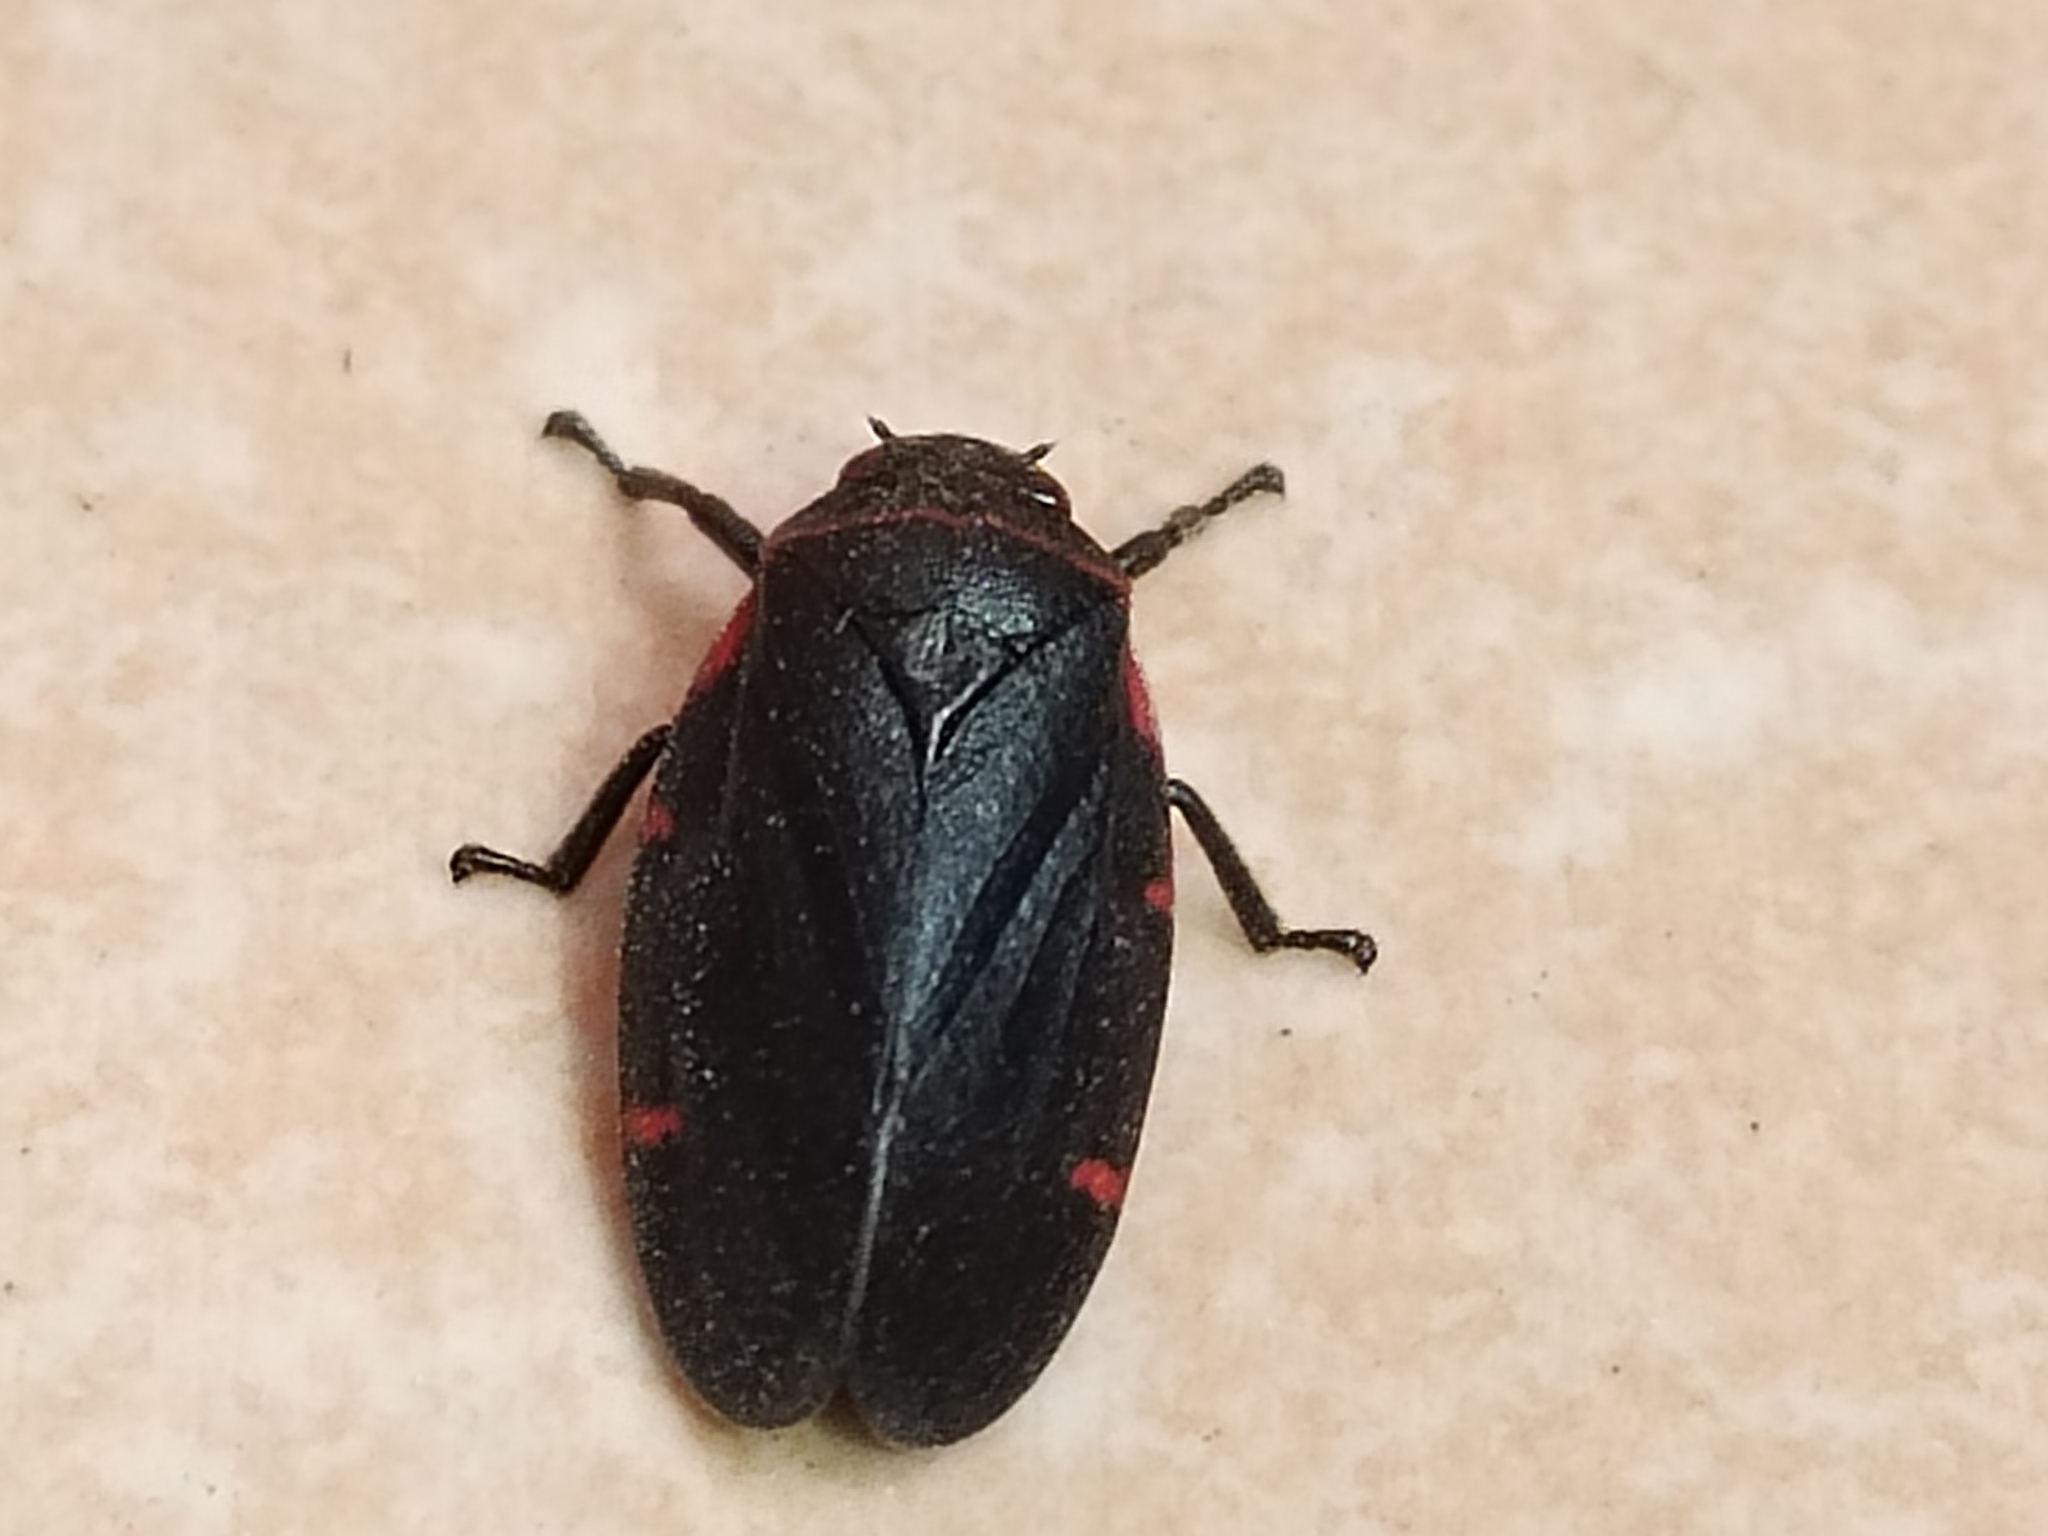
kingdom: Animalia
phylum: Arthropoda
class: Insecta
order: Hemiptera
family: Cercopidae
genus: Prosapia
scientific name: Prosapia
